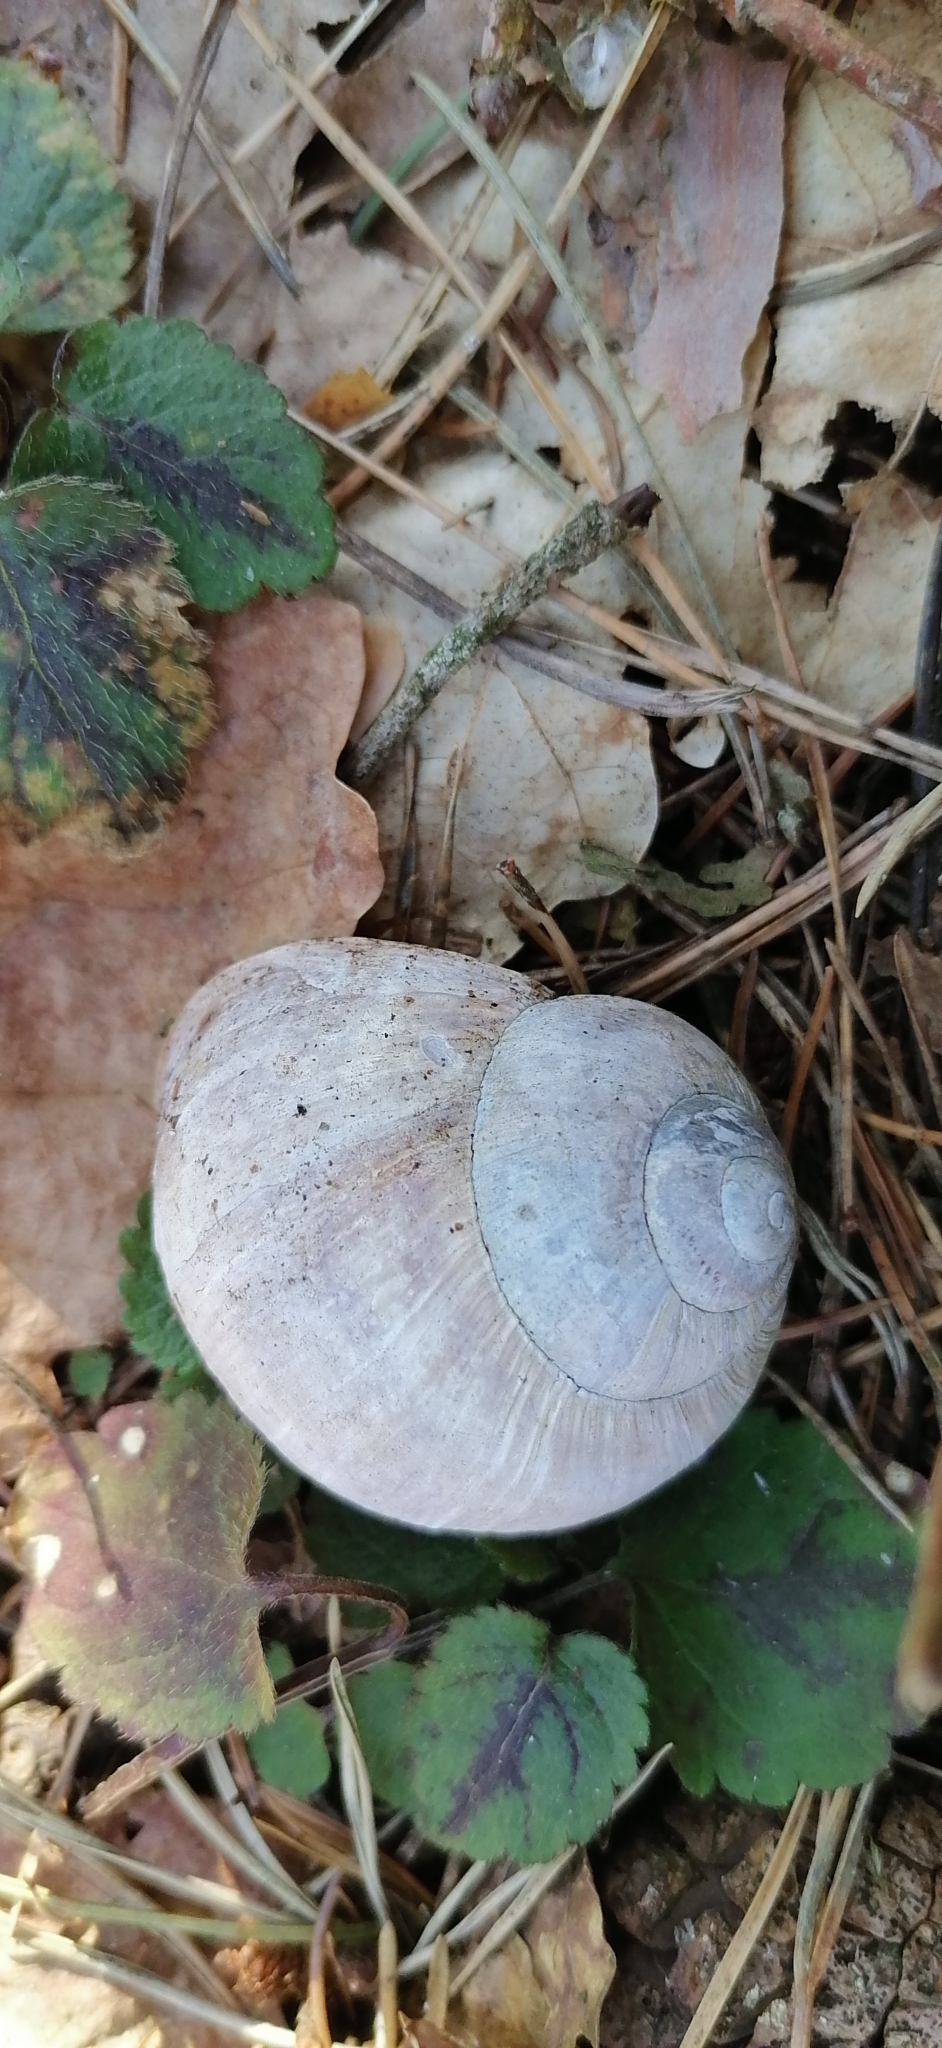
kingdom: Animalia
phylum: Mollusca
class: Gastropoda
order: Stylommatophora
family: Helicidae
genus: Helix
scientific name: Helix pomatia
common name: Roman snail
